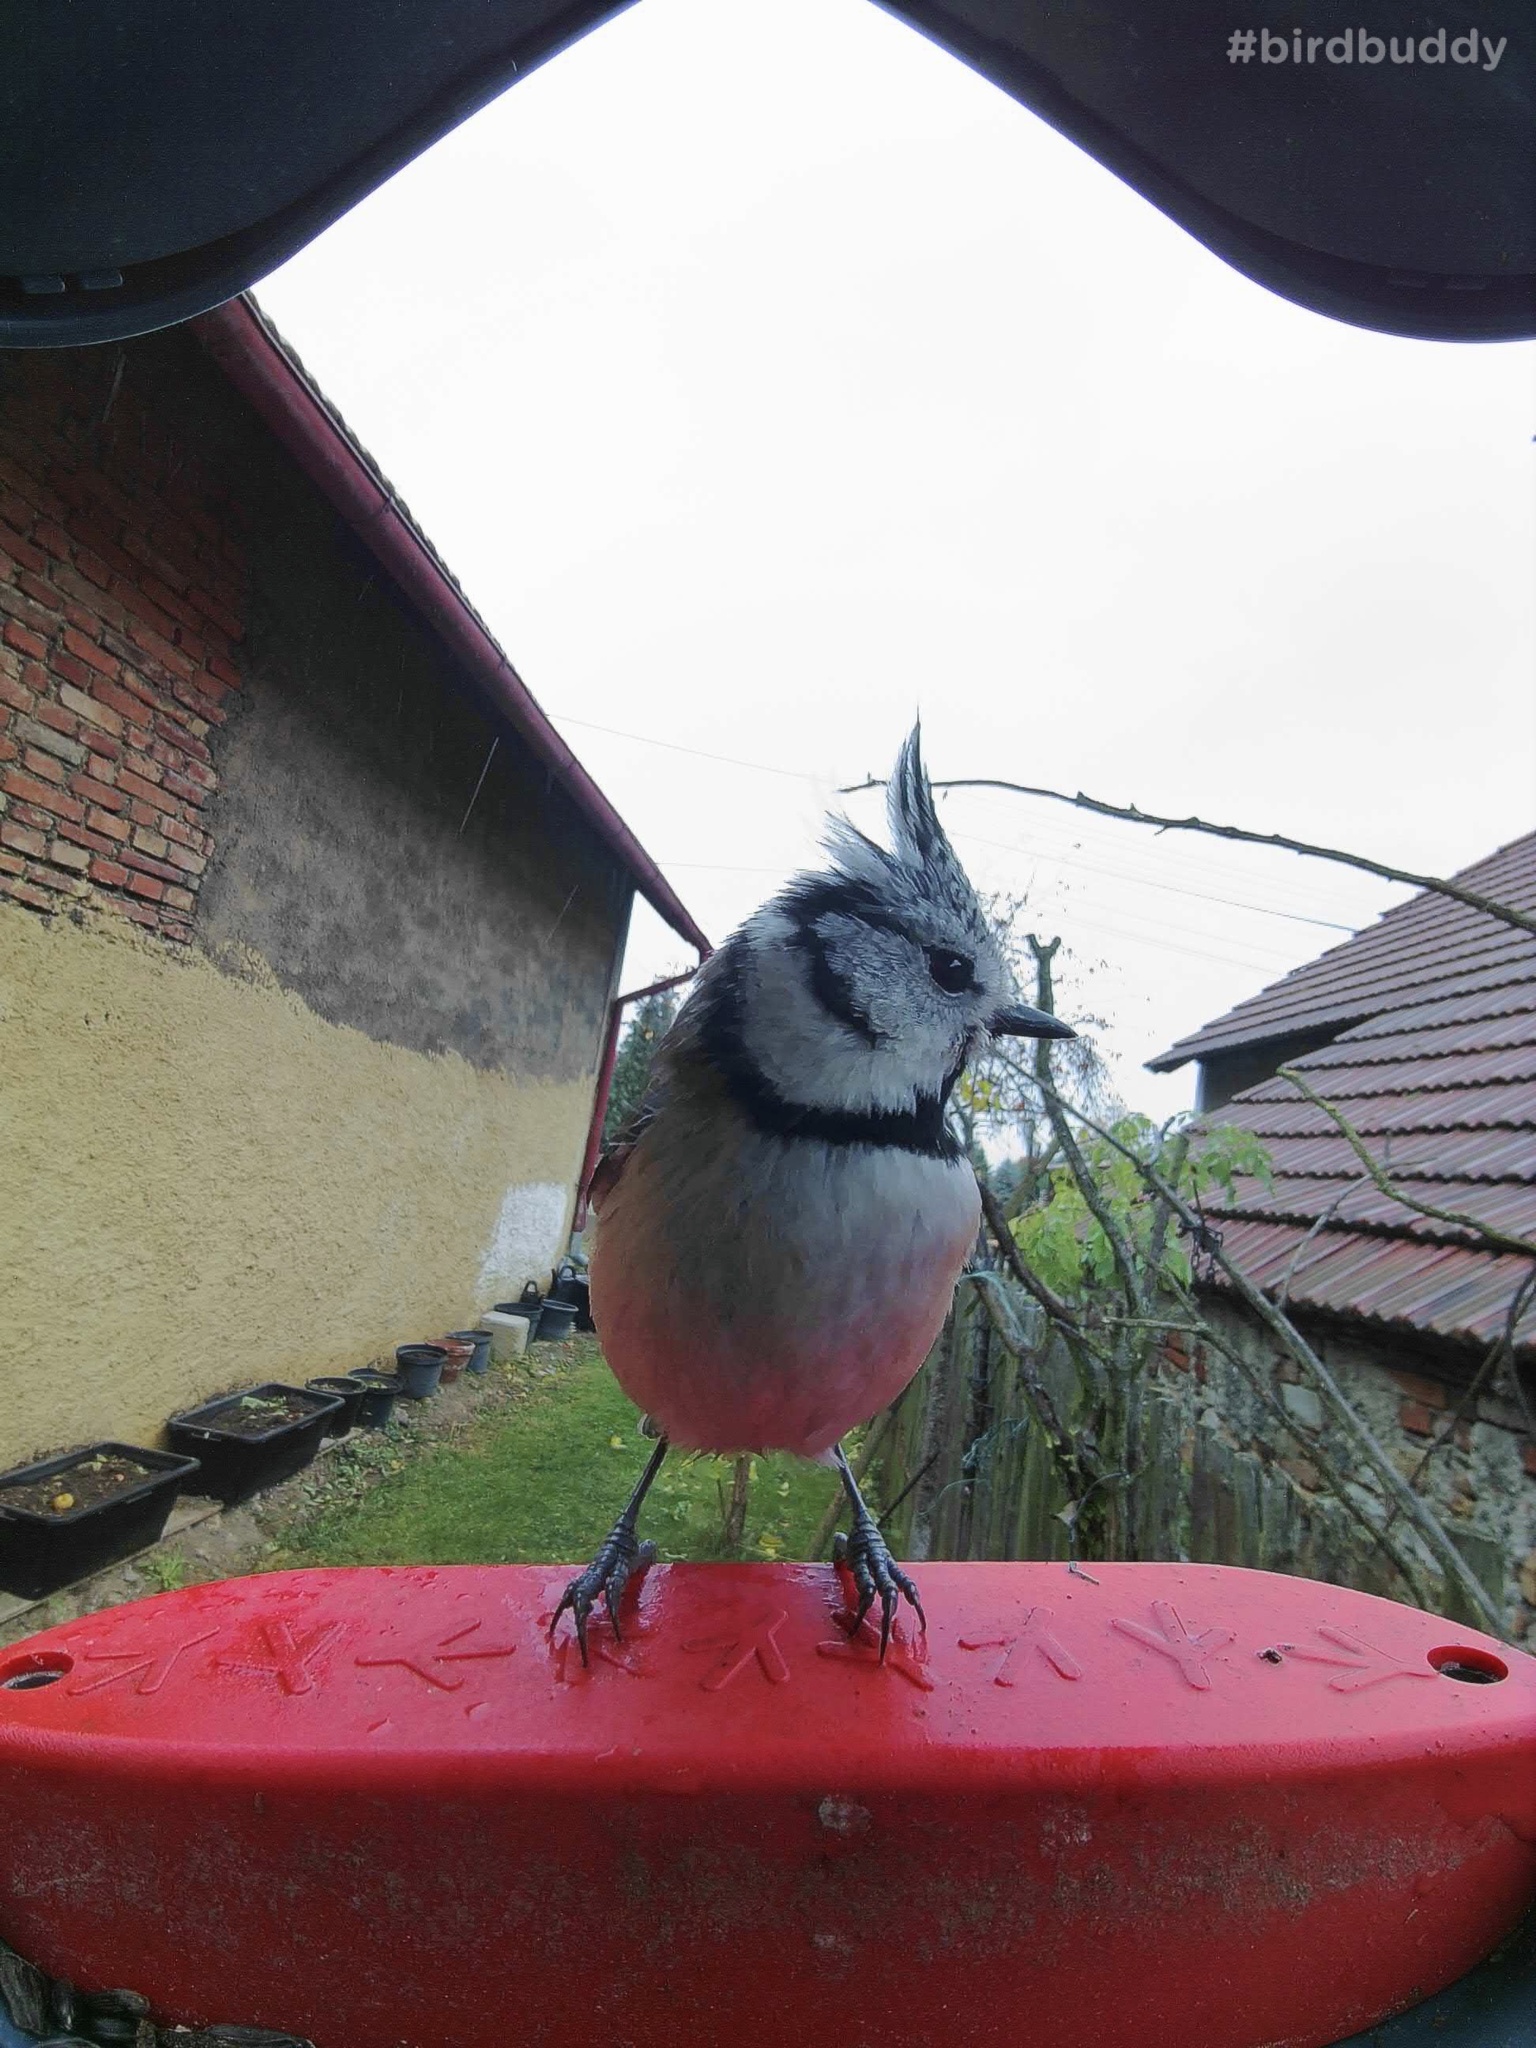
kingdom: Animalia
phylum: Chordata
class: Aves
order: Passeriformes
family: Paridae
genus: Lophophanes
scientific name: Lophophanes cristatus
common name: European crested tit
